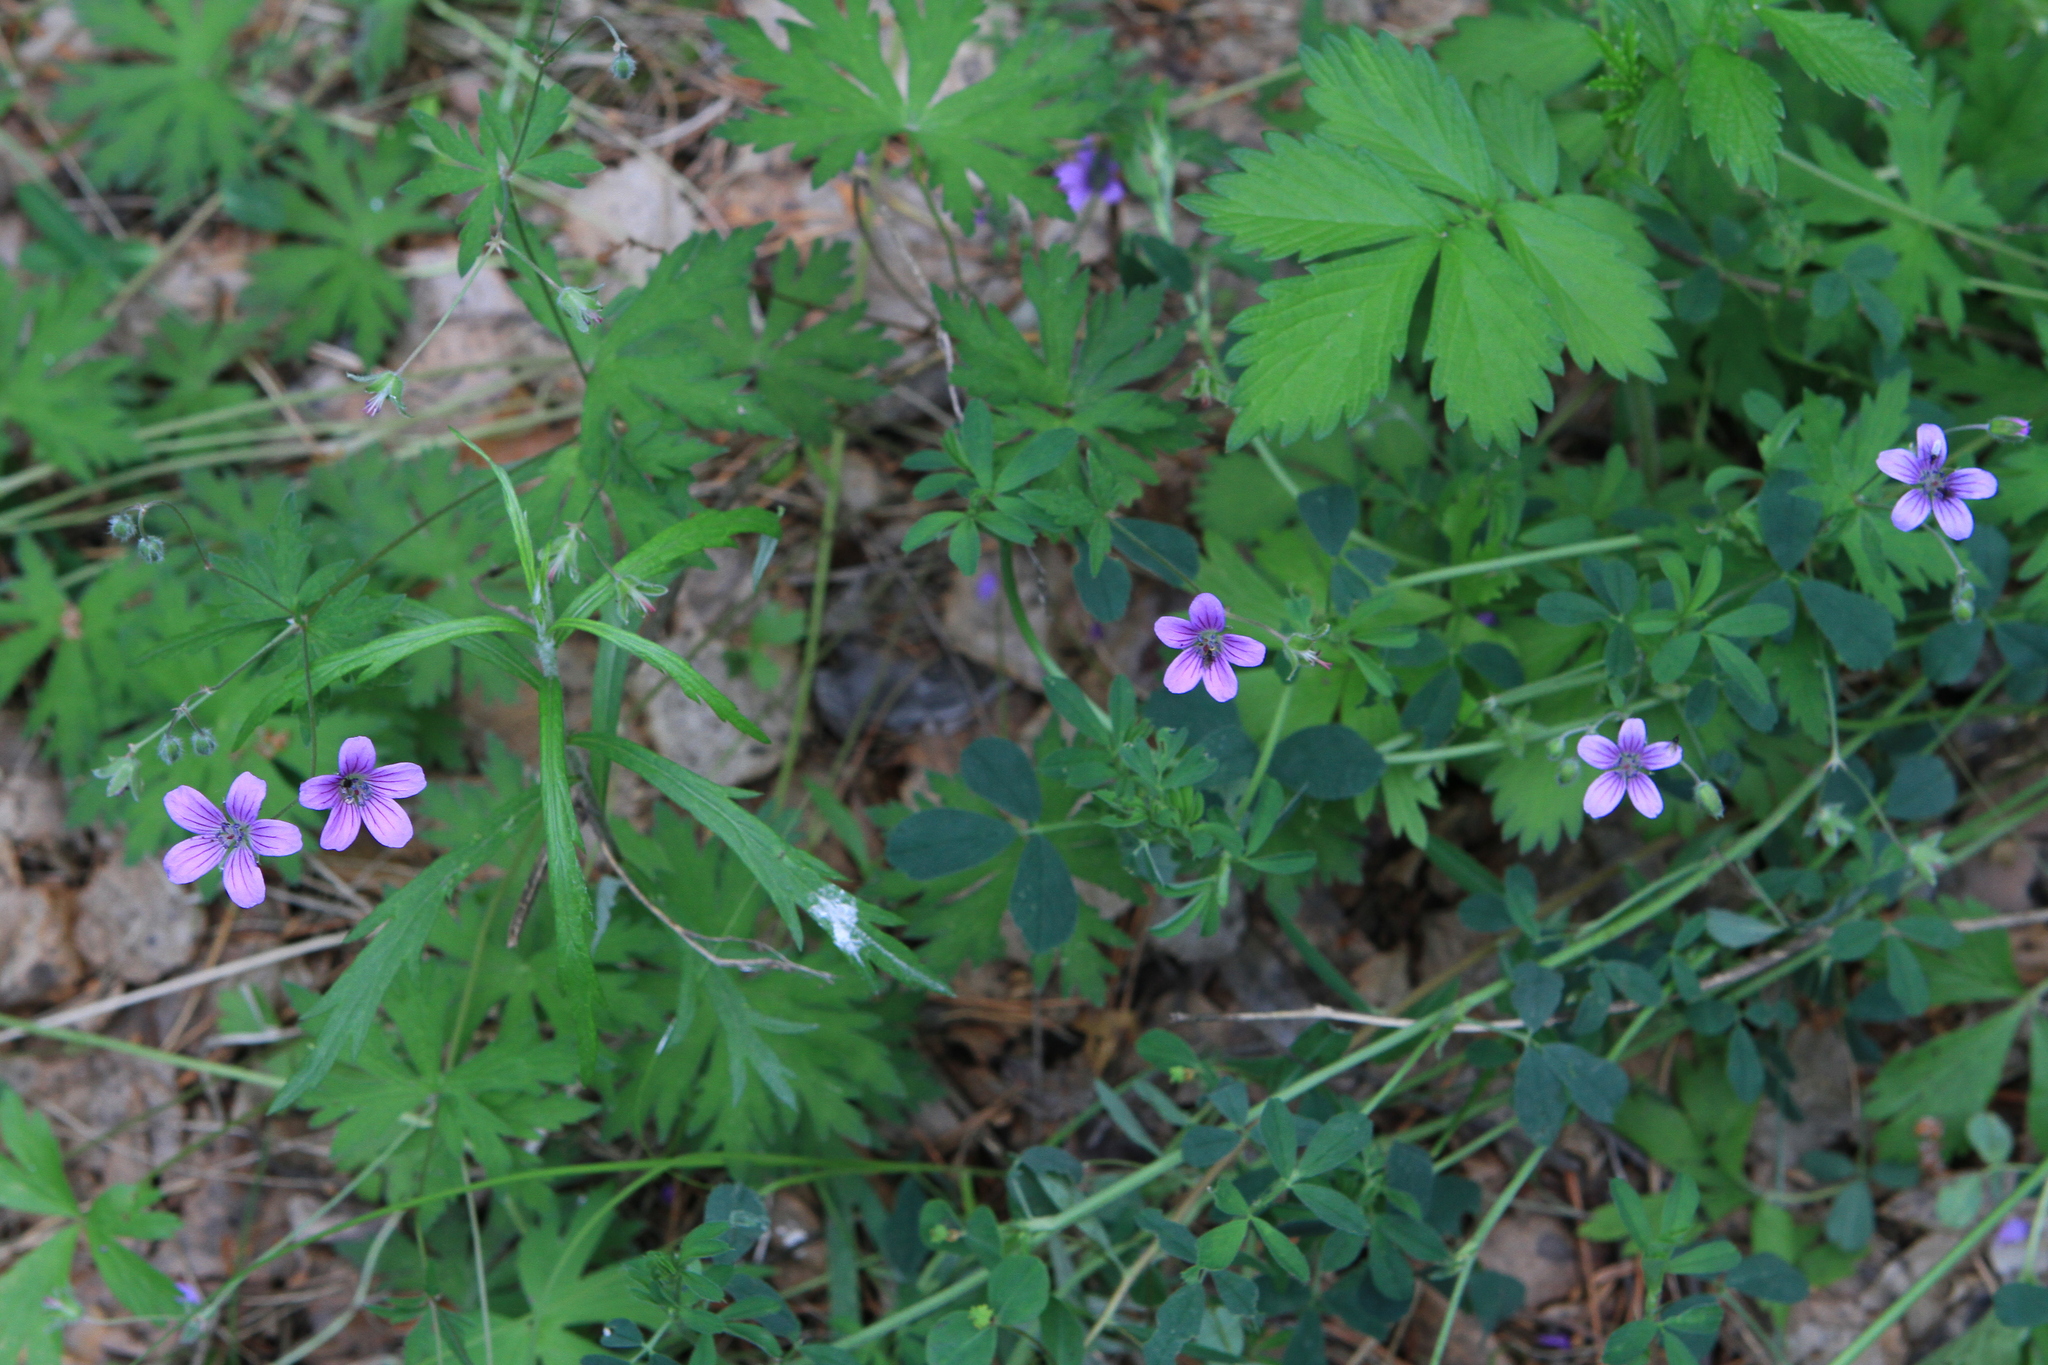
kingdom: Plantae
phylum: Tracheophyta
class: Magnoliopsida
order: Geraniales
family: Geraniaceae
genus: Geranium
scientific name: Geranium pseudosibiricum
